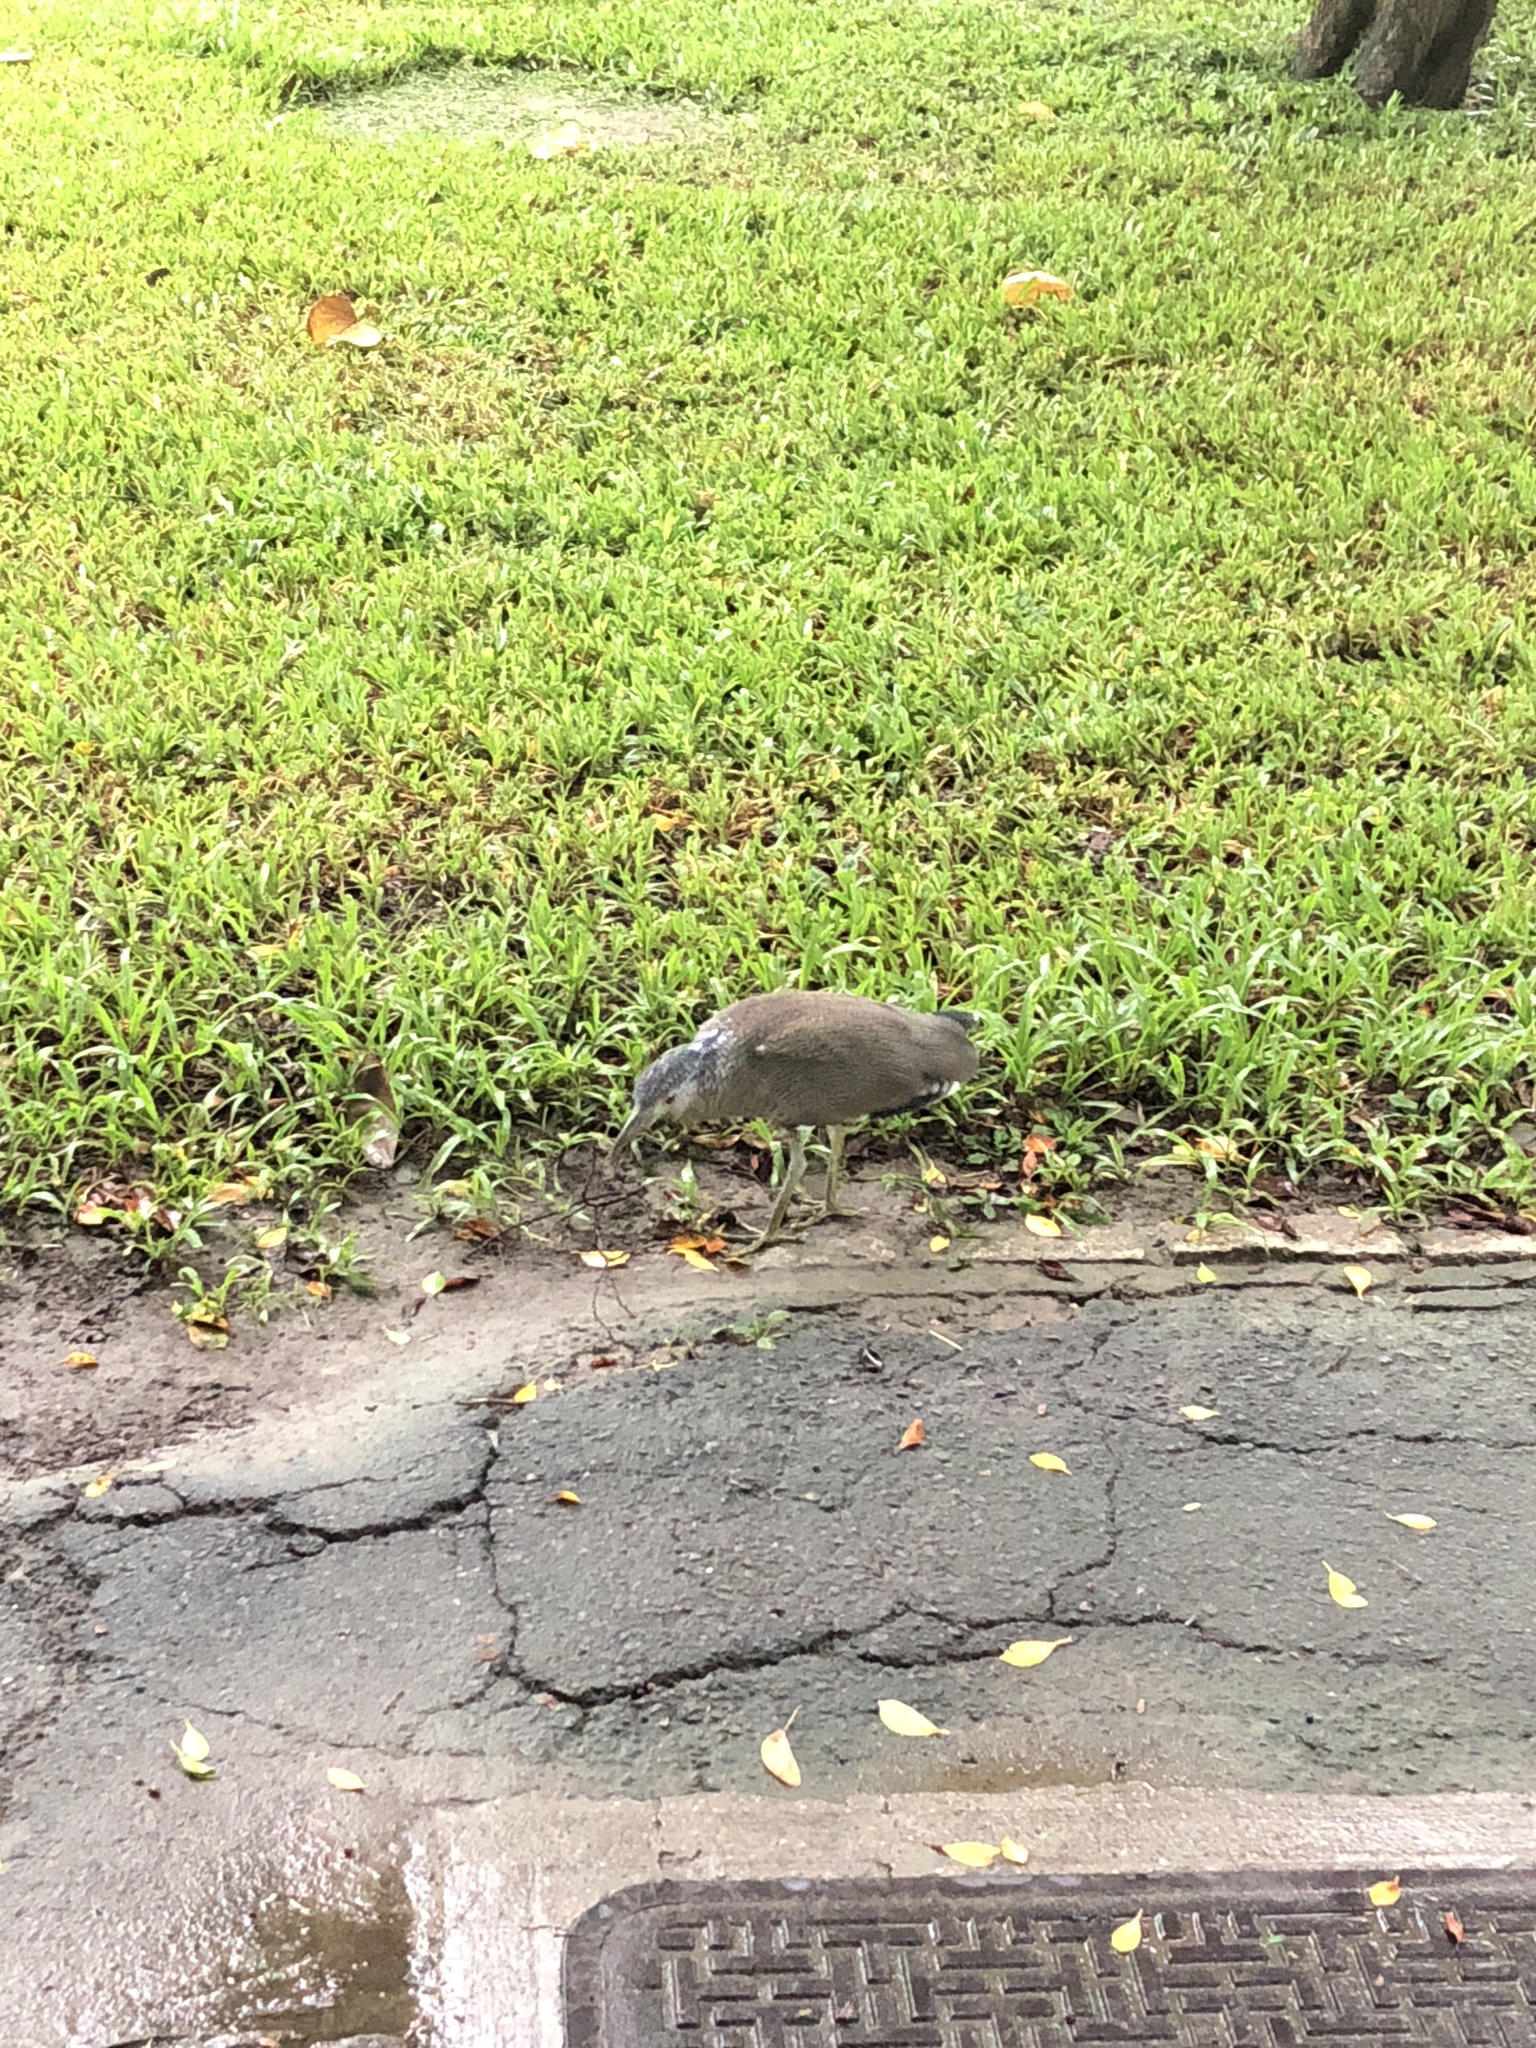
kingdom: Animalia
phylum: Chordata
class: Aves
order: Pelecaniformes
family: Ardeidae
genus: Gorsachius
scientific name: Gorsachius melanolophus
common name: Malayan night heron
